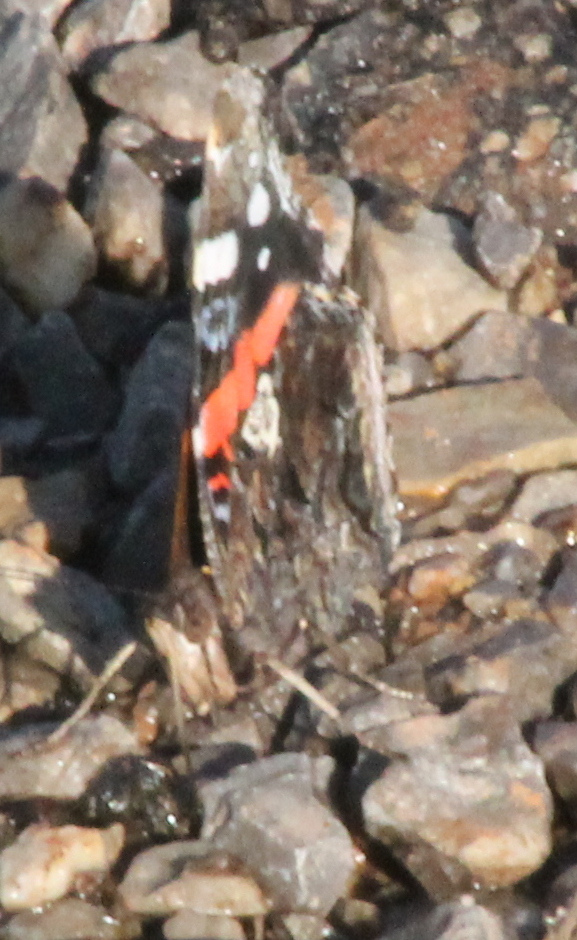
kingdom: Animalia
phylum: Arthropoda
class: Insecta
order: Lepidoptera
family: Nymphalidae
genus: Vanessa
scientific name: Vanessa atalanta
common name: Red admiral
